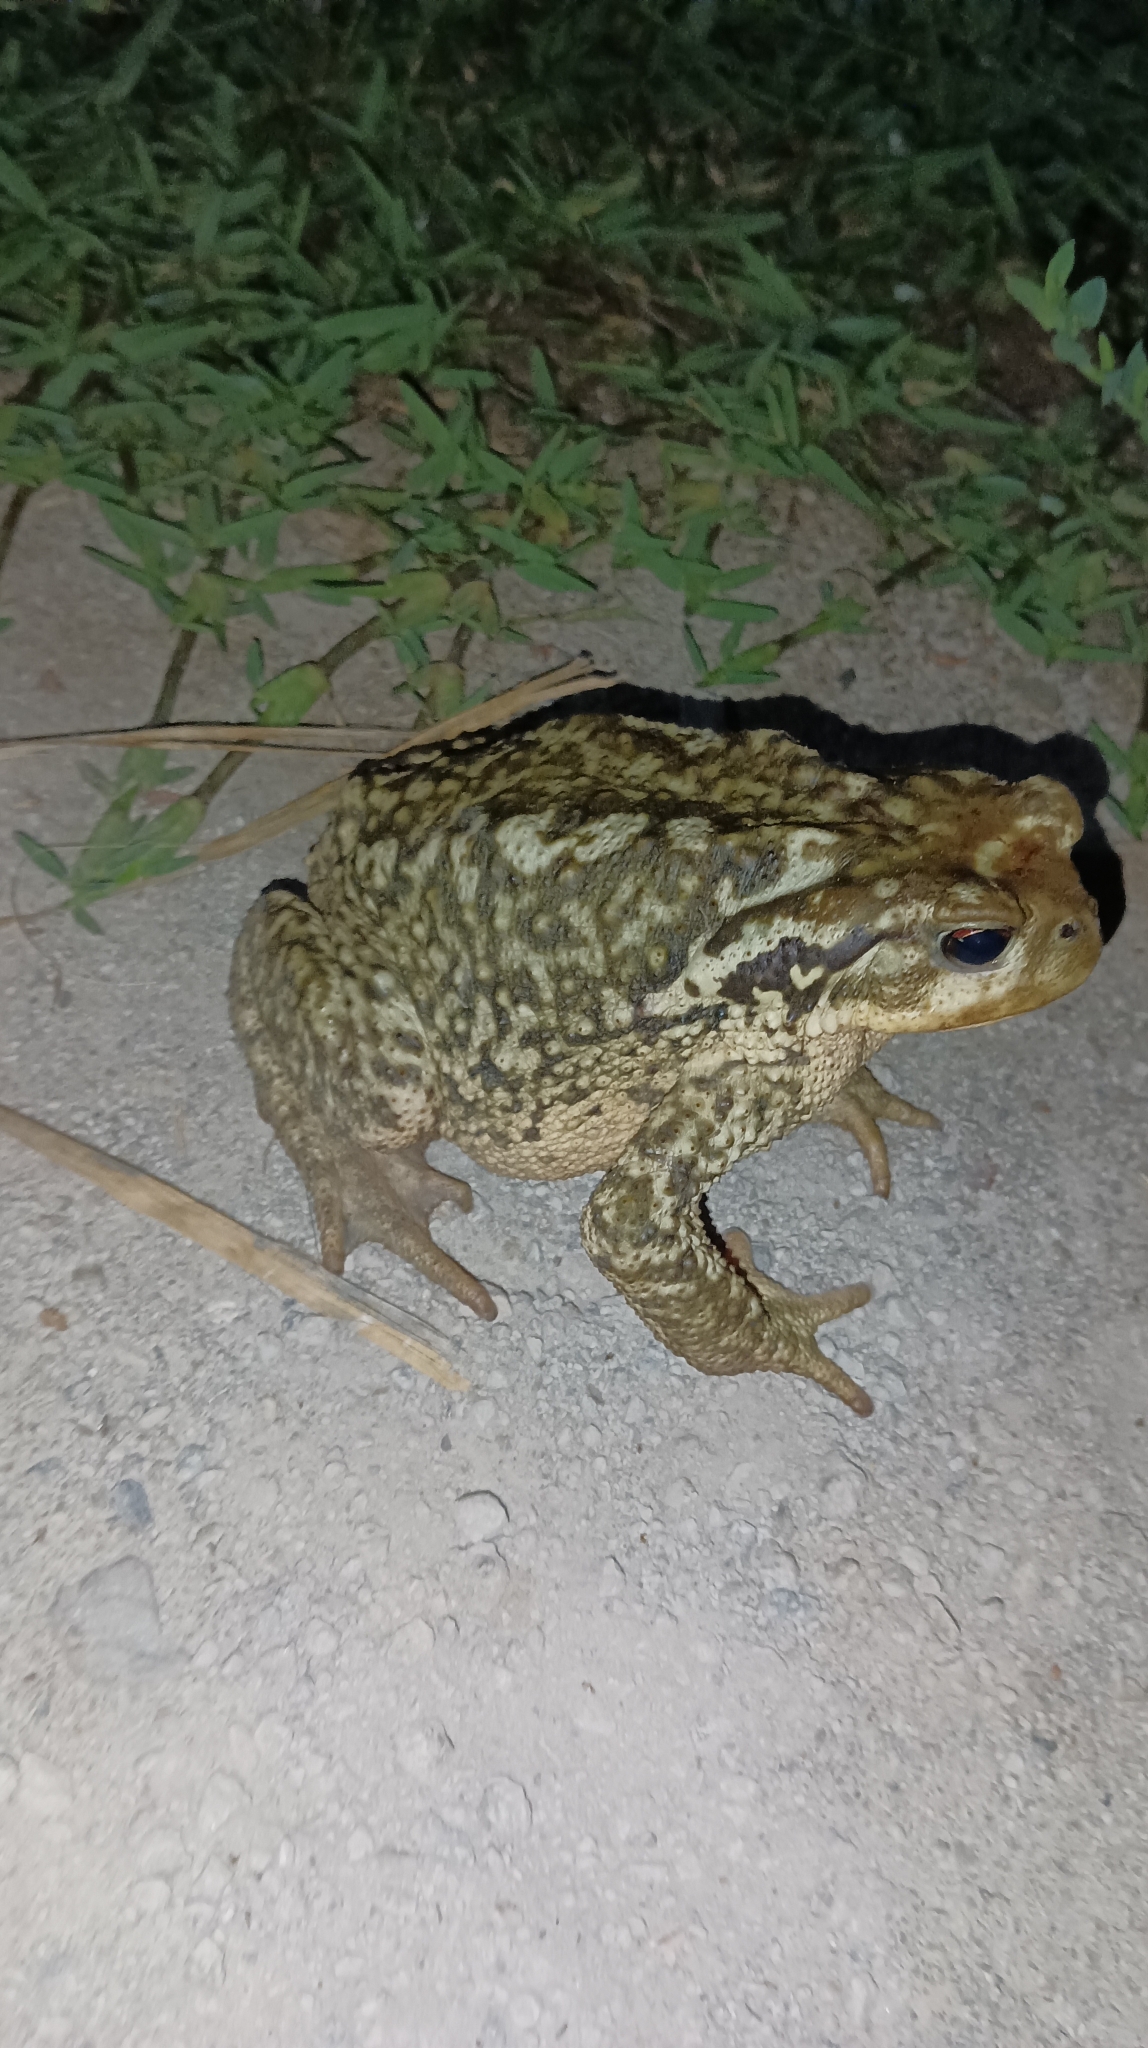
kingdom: Animalia
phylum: Chordata
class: Amphibia
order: Anura
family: Bufonidae
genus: Bufo
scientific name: Bufo spinosus
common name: Western common toad
